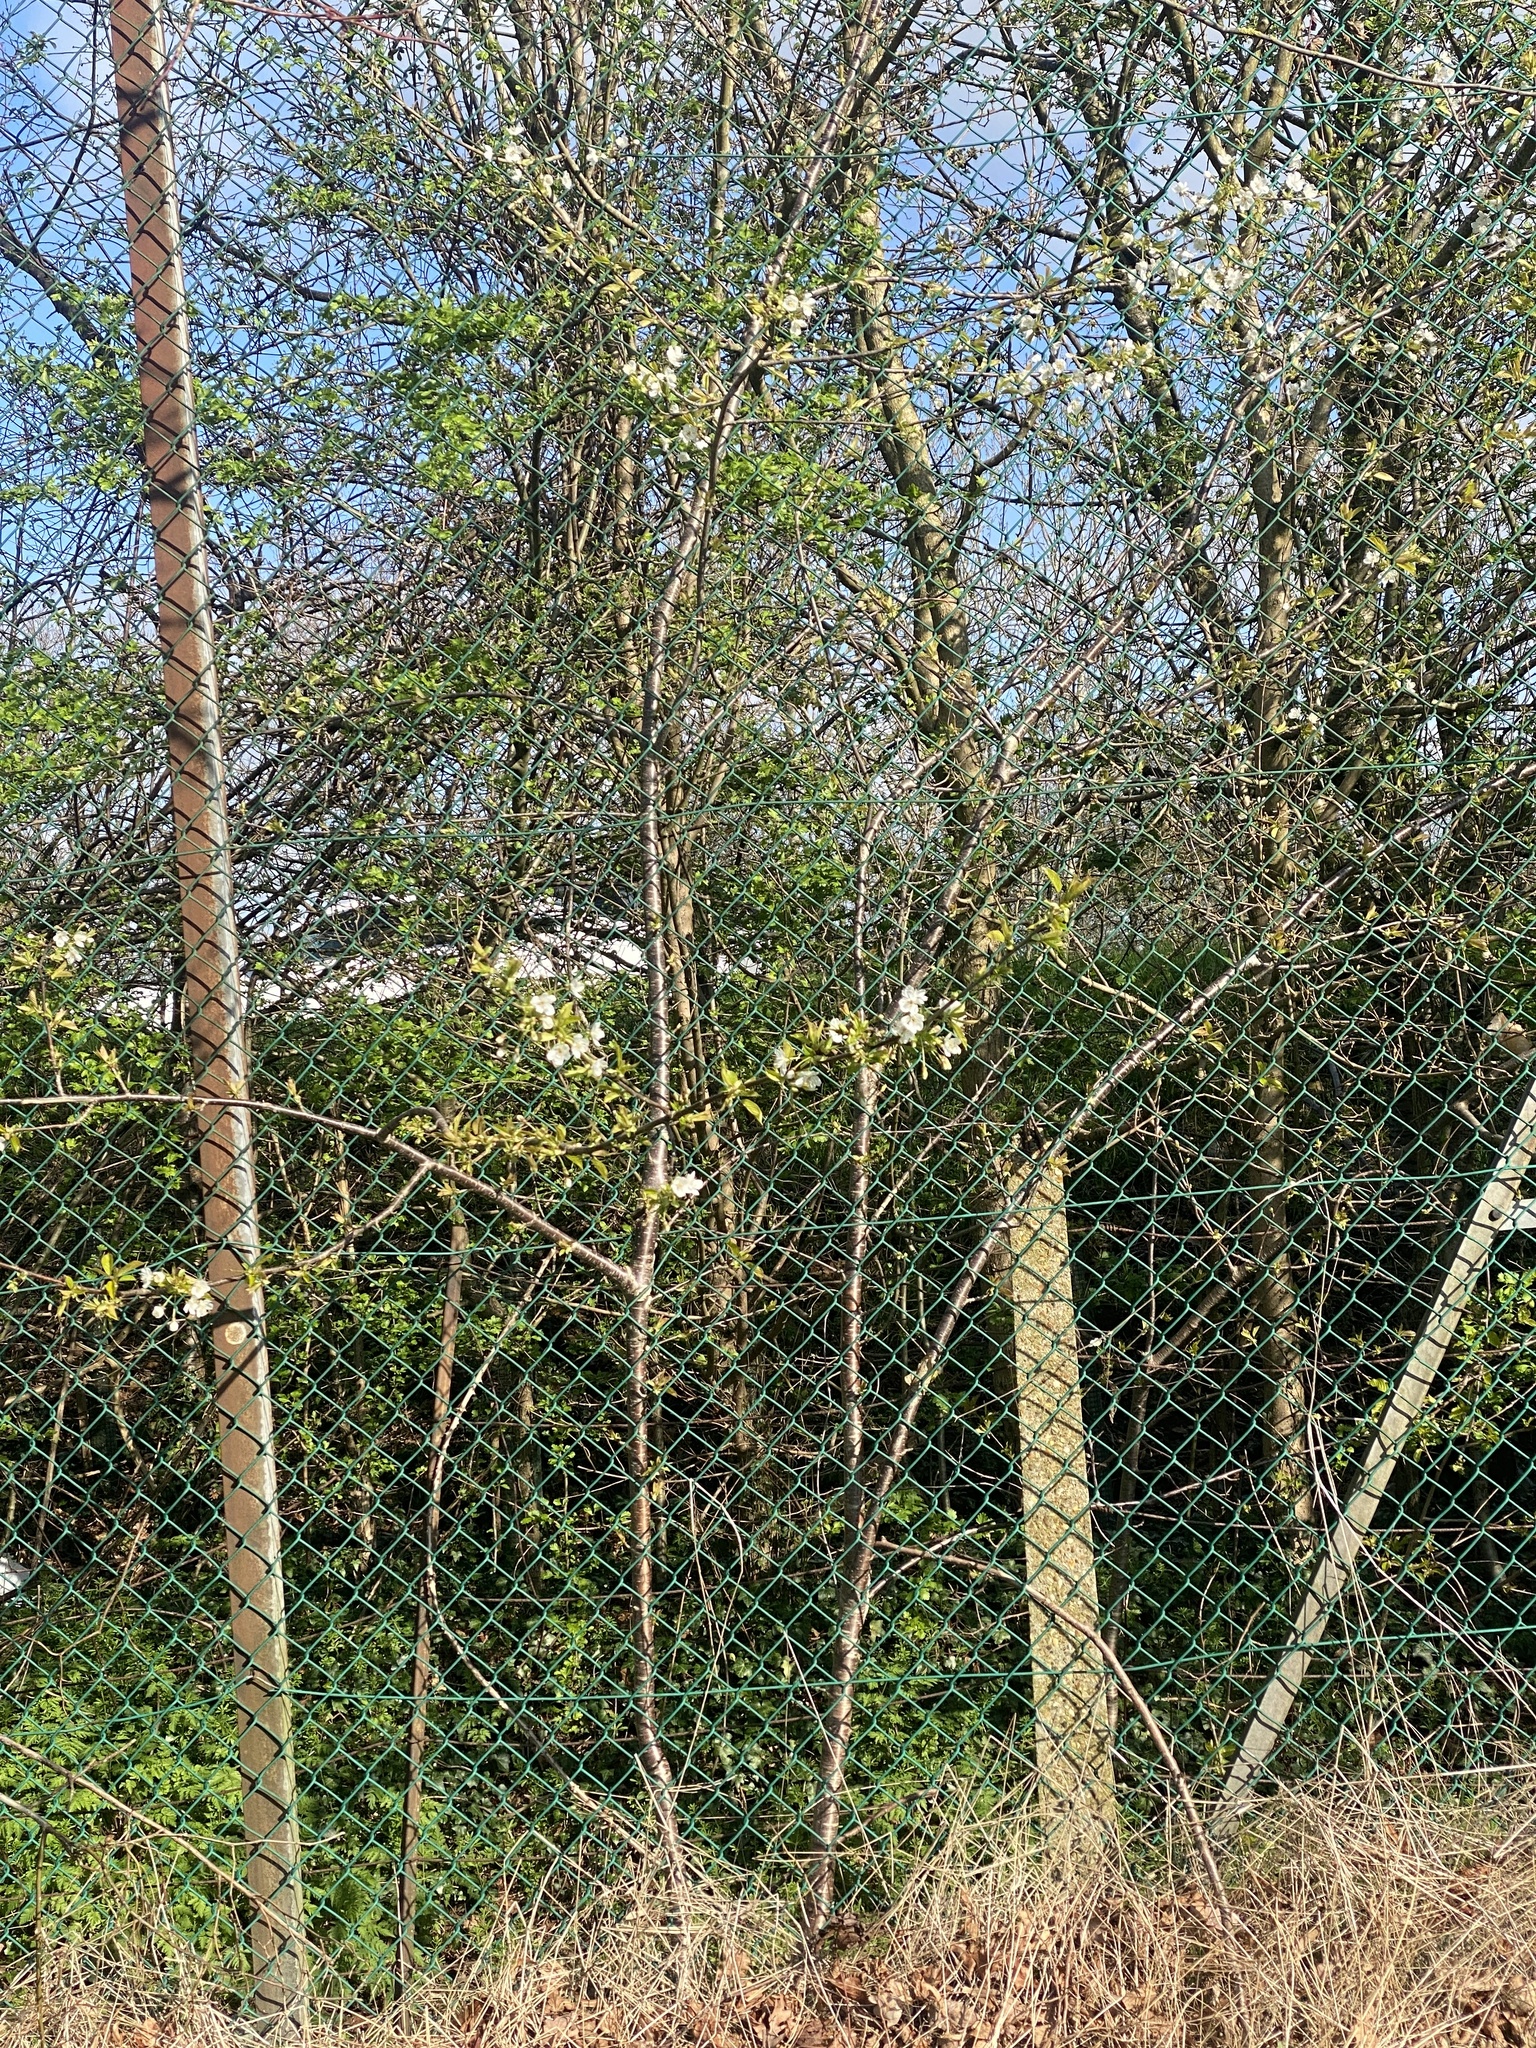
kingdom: Plantae
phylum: Tracheophyta
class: Magnoliopsida
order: Rosales
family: Rosaceae
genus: Prunus
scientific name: Prunus avium
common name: Sweet cherry
